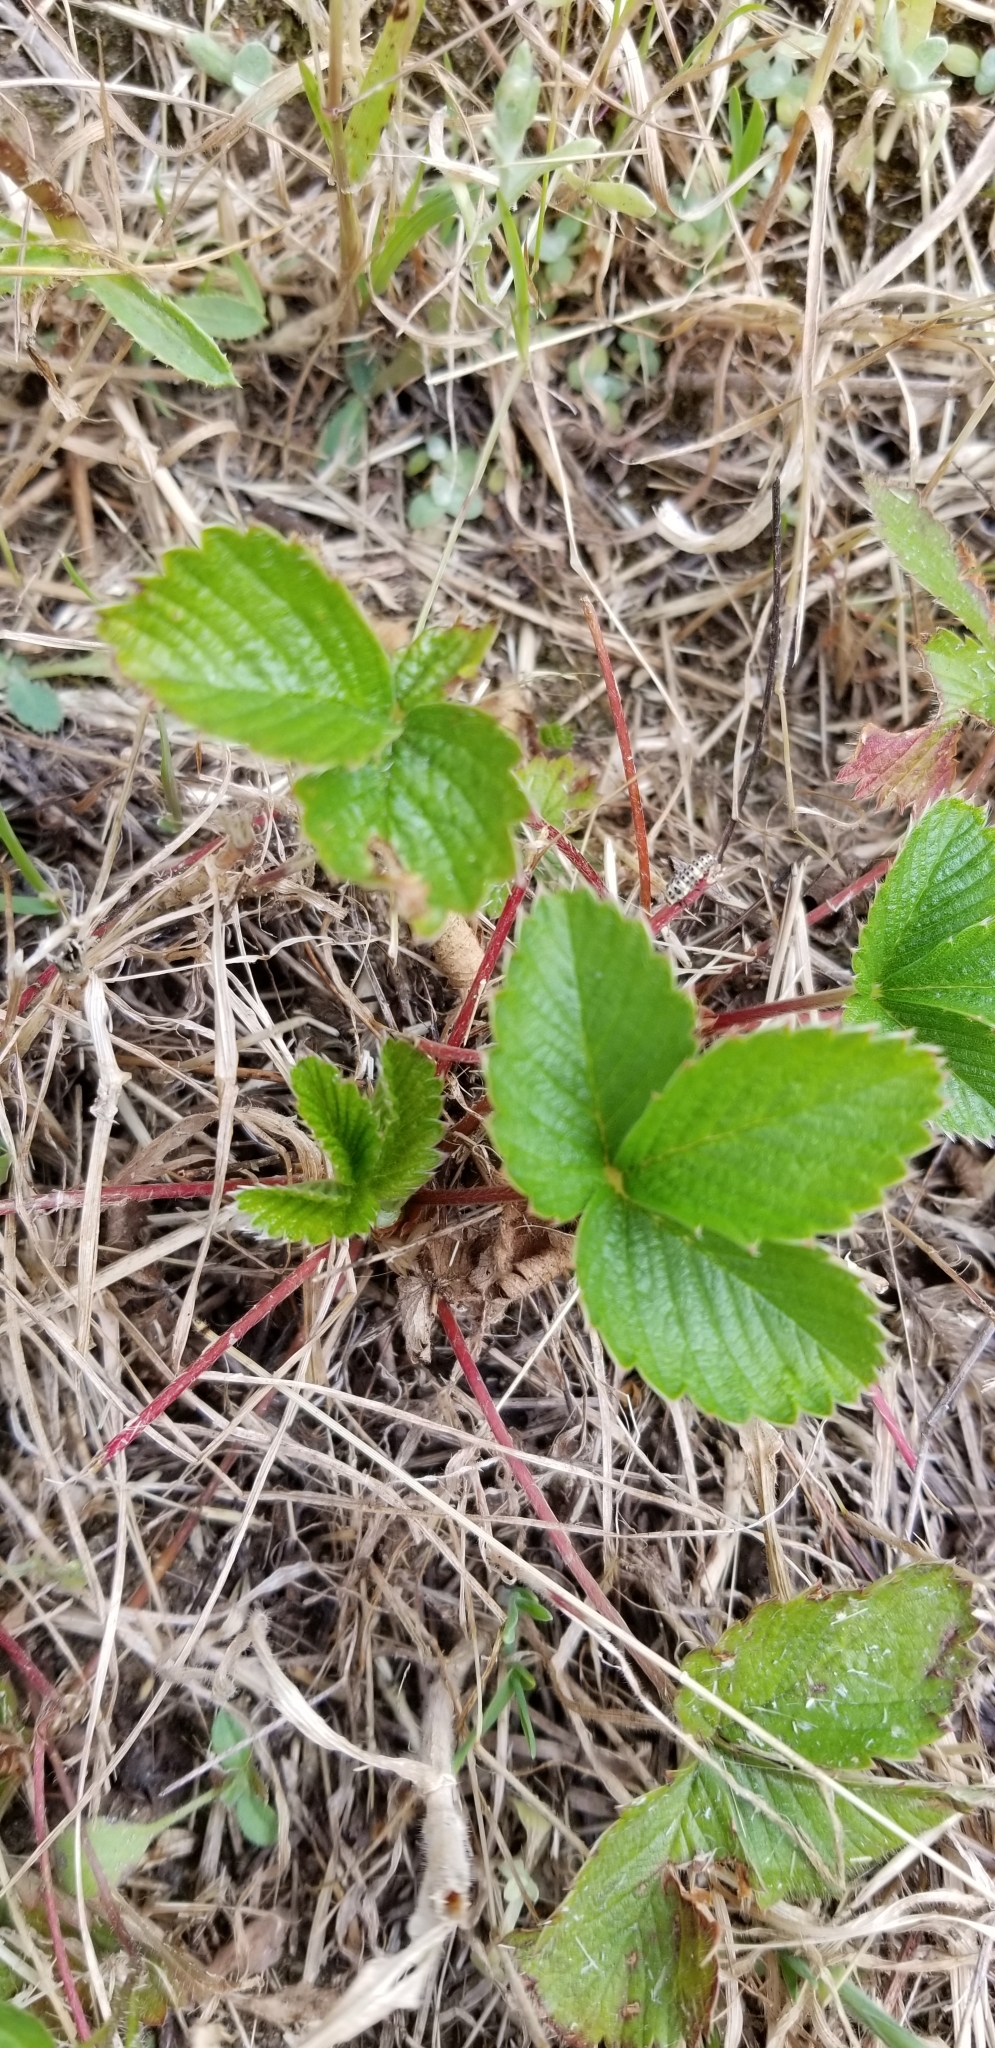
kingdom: Plantae
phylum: Tracheophyta
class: Magnoliopsida
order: Rosales
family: Rosaceae
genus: Fragaria
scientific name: Fragaria vesca
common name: Wild strawberry
